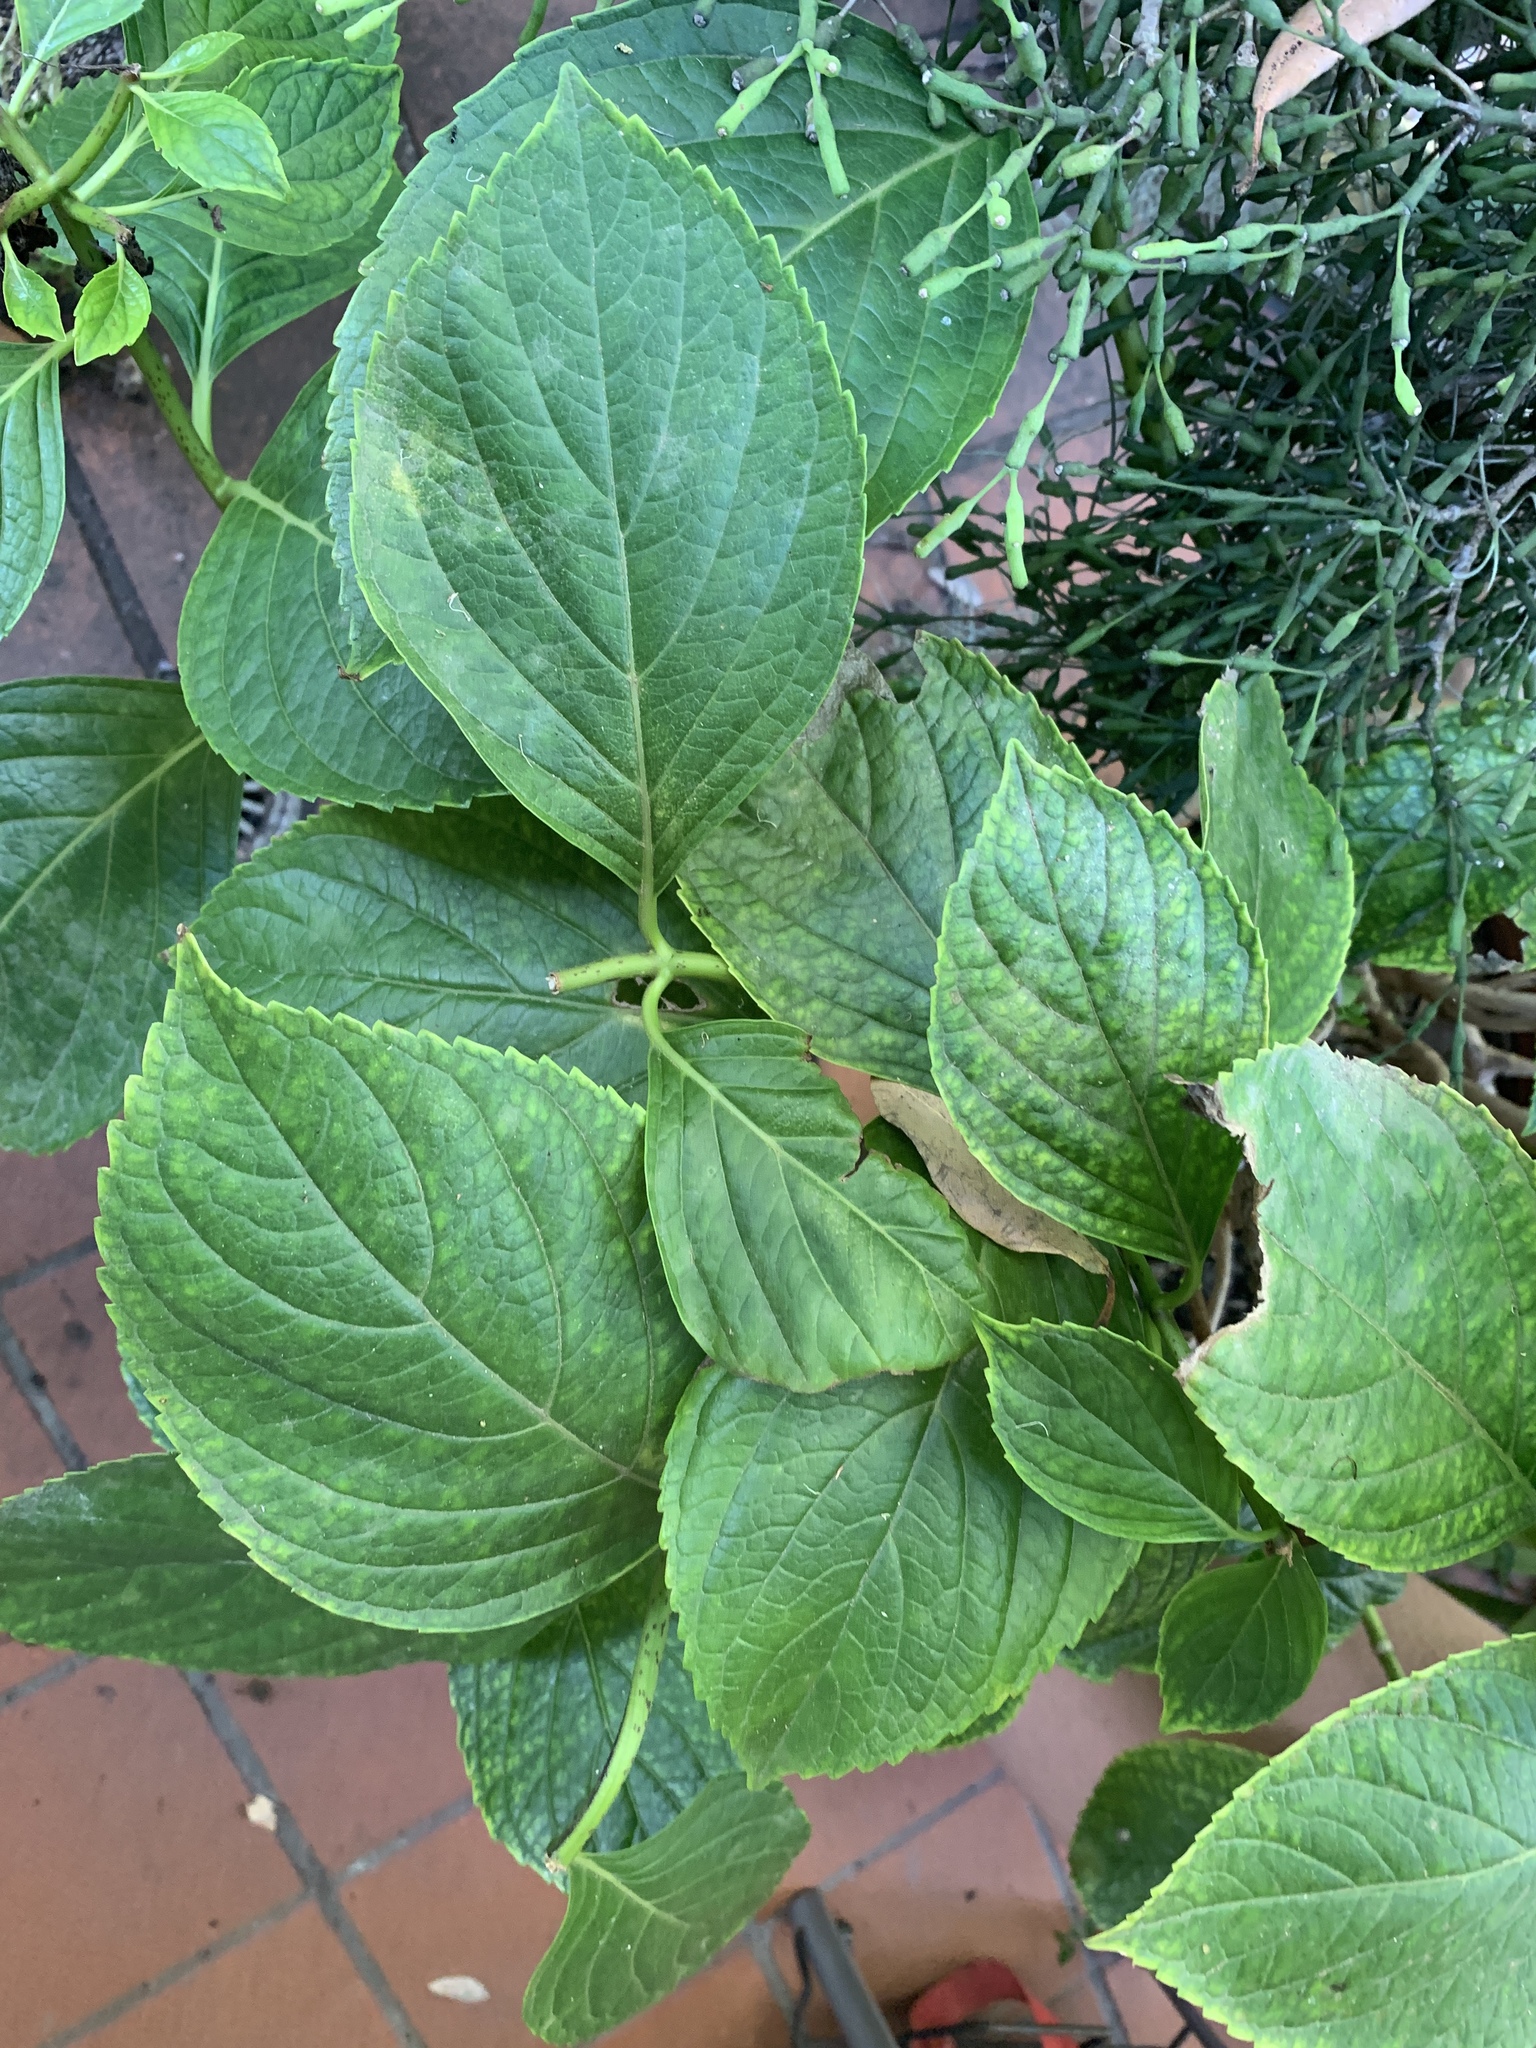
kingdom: Plantae
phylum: Tracheophyta
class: Magnoliopsida
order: Cornales
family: Hydrangeaceae
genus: Hydrangea
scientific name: Hydrangea macrophylla
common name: Hydrangea
